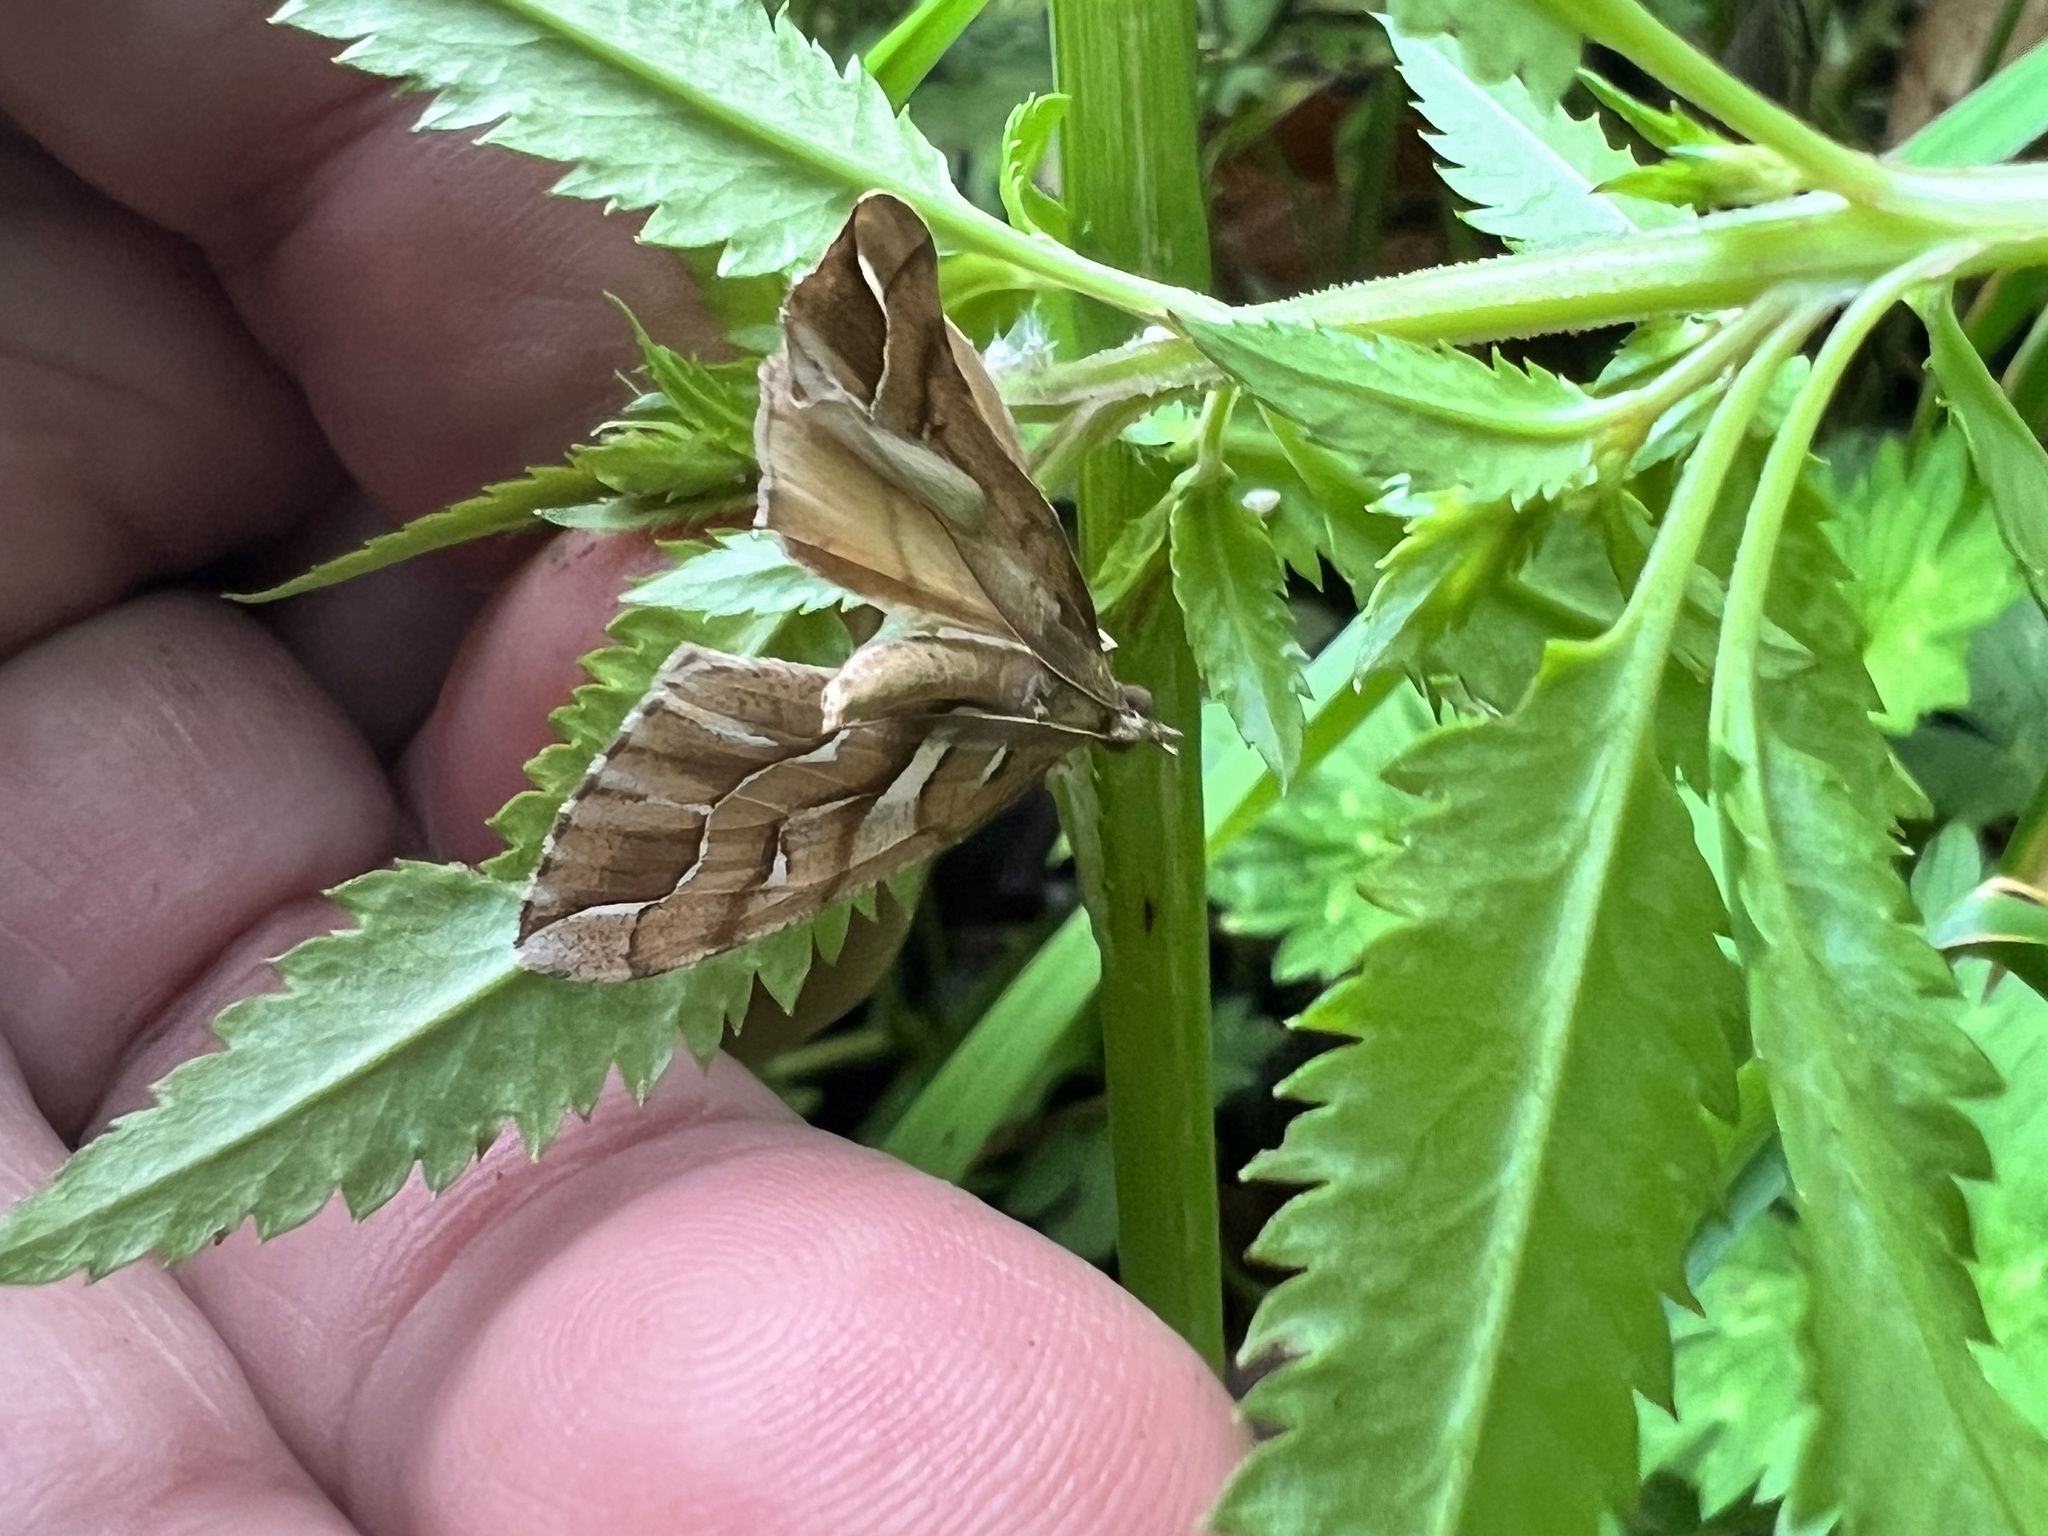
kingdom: Animalia
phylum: Arthropoda
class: Insecta
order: Lepidoptera
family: Geometridae
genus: Chalastra
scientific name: Chalastra aristarcha
